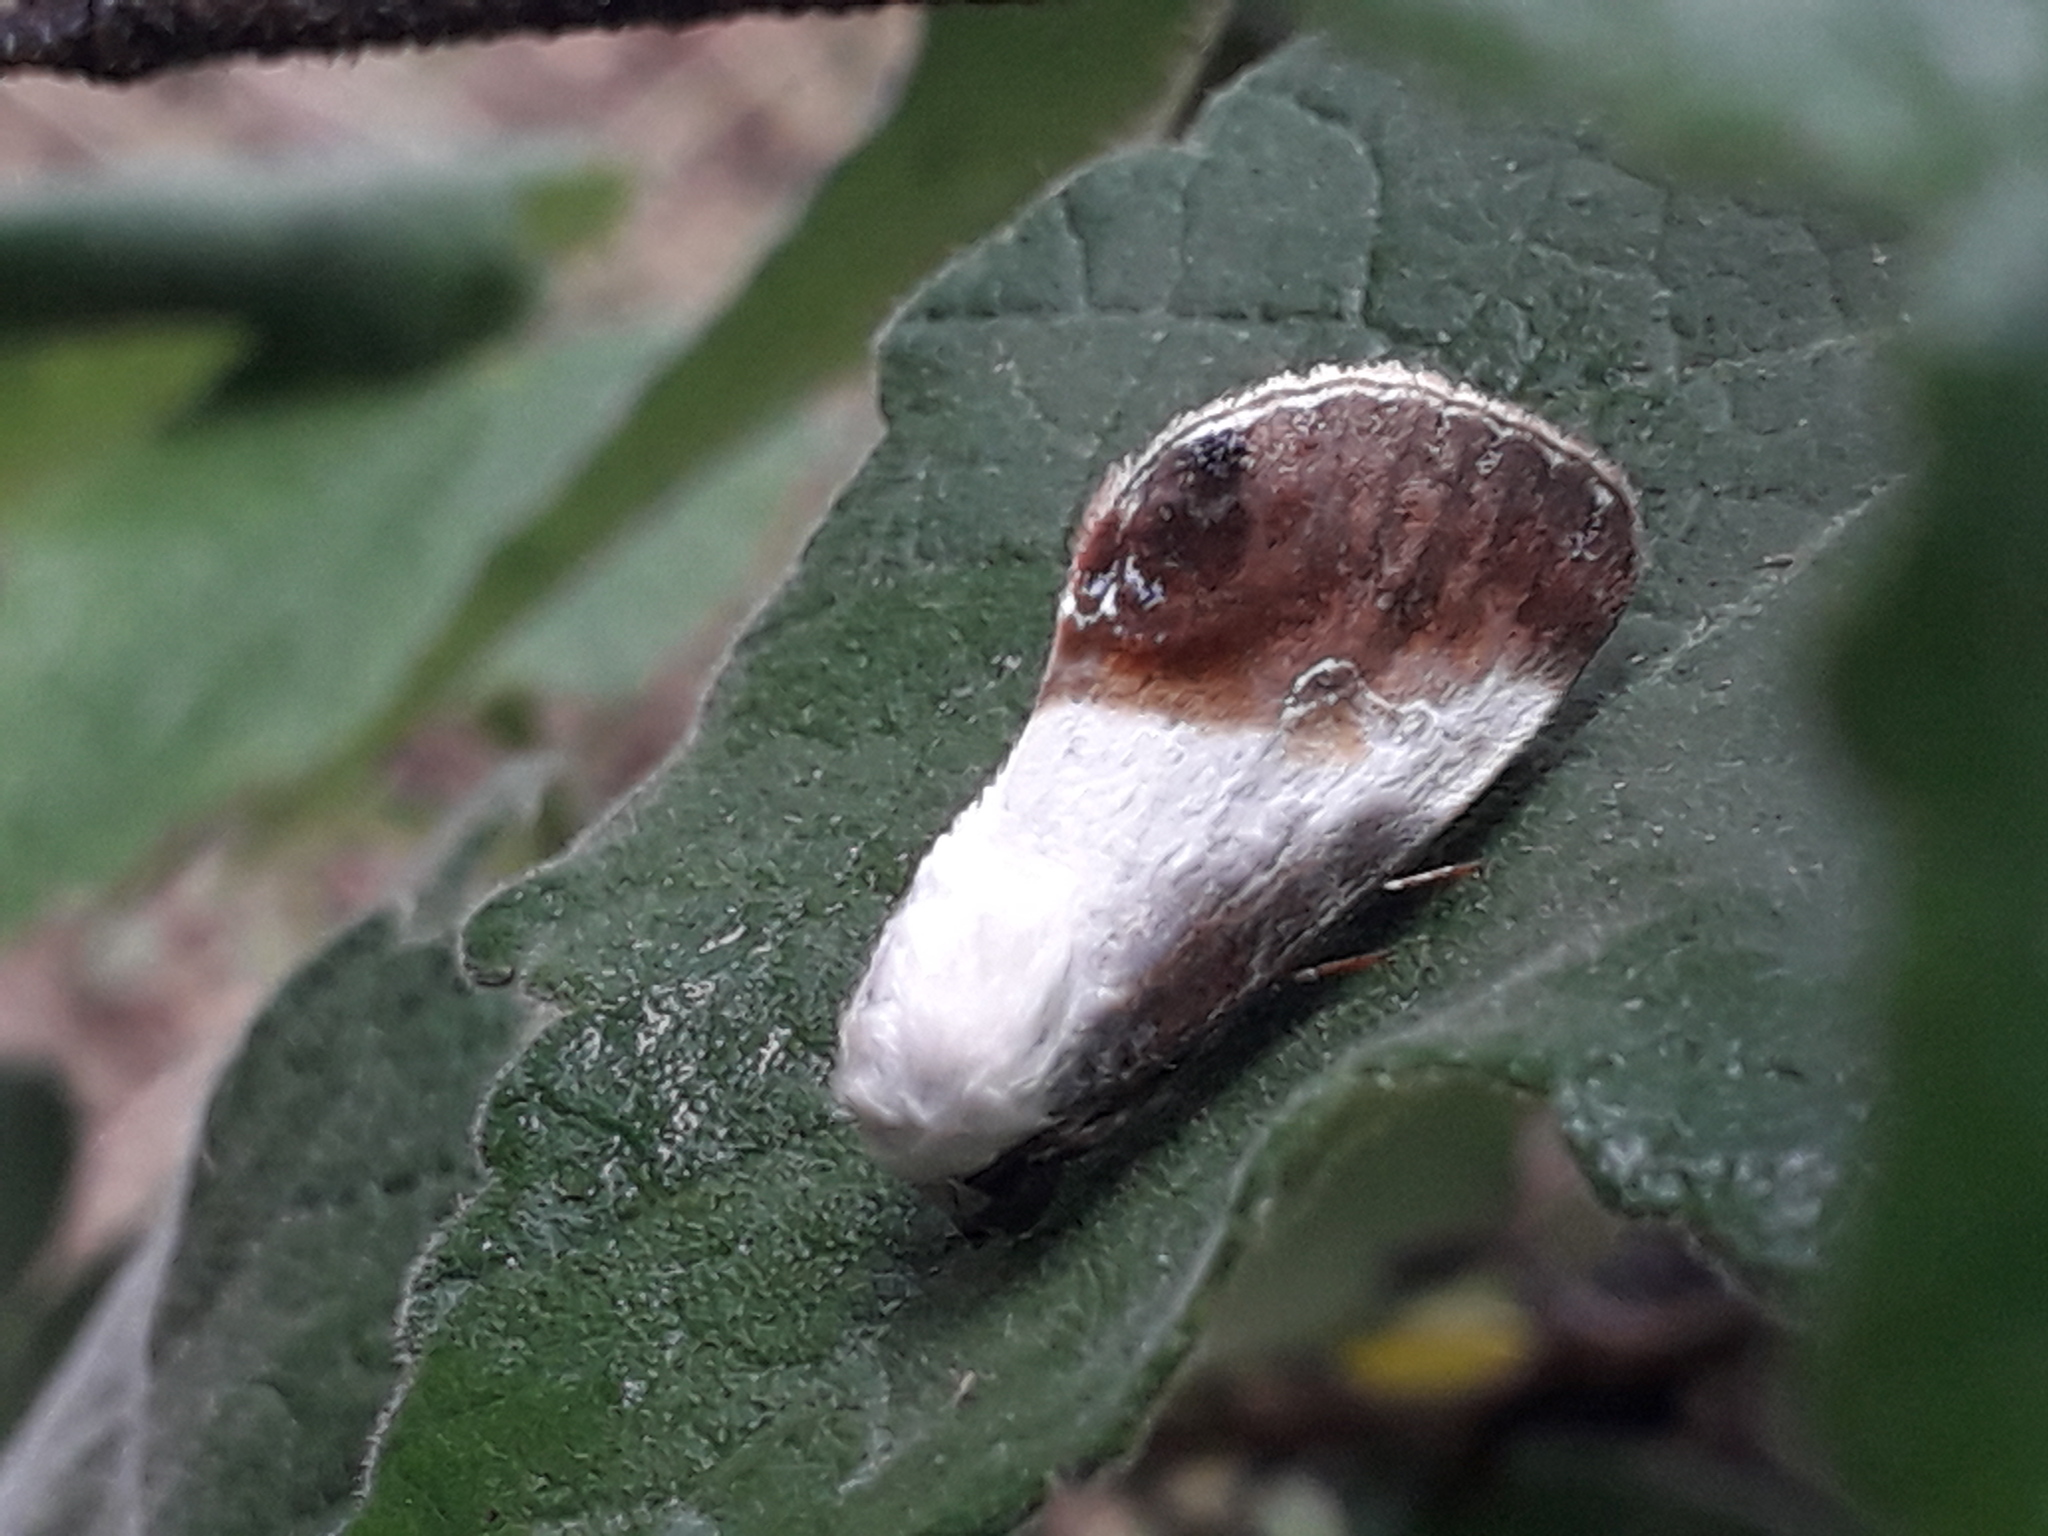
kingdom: Animalia
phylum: Arthropoda
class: Insecta
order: Lepidoptera
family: Noctuidae
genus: Acontia
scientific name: Acontia jaliscana
